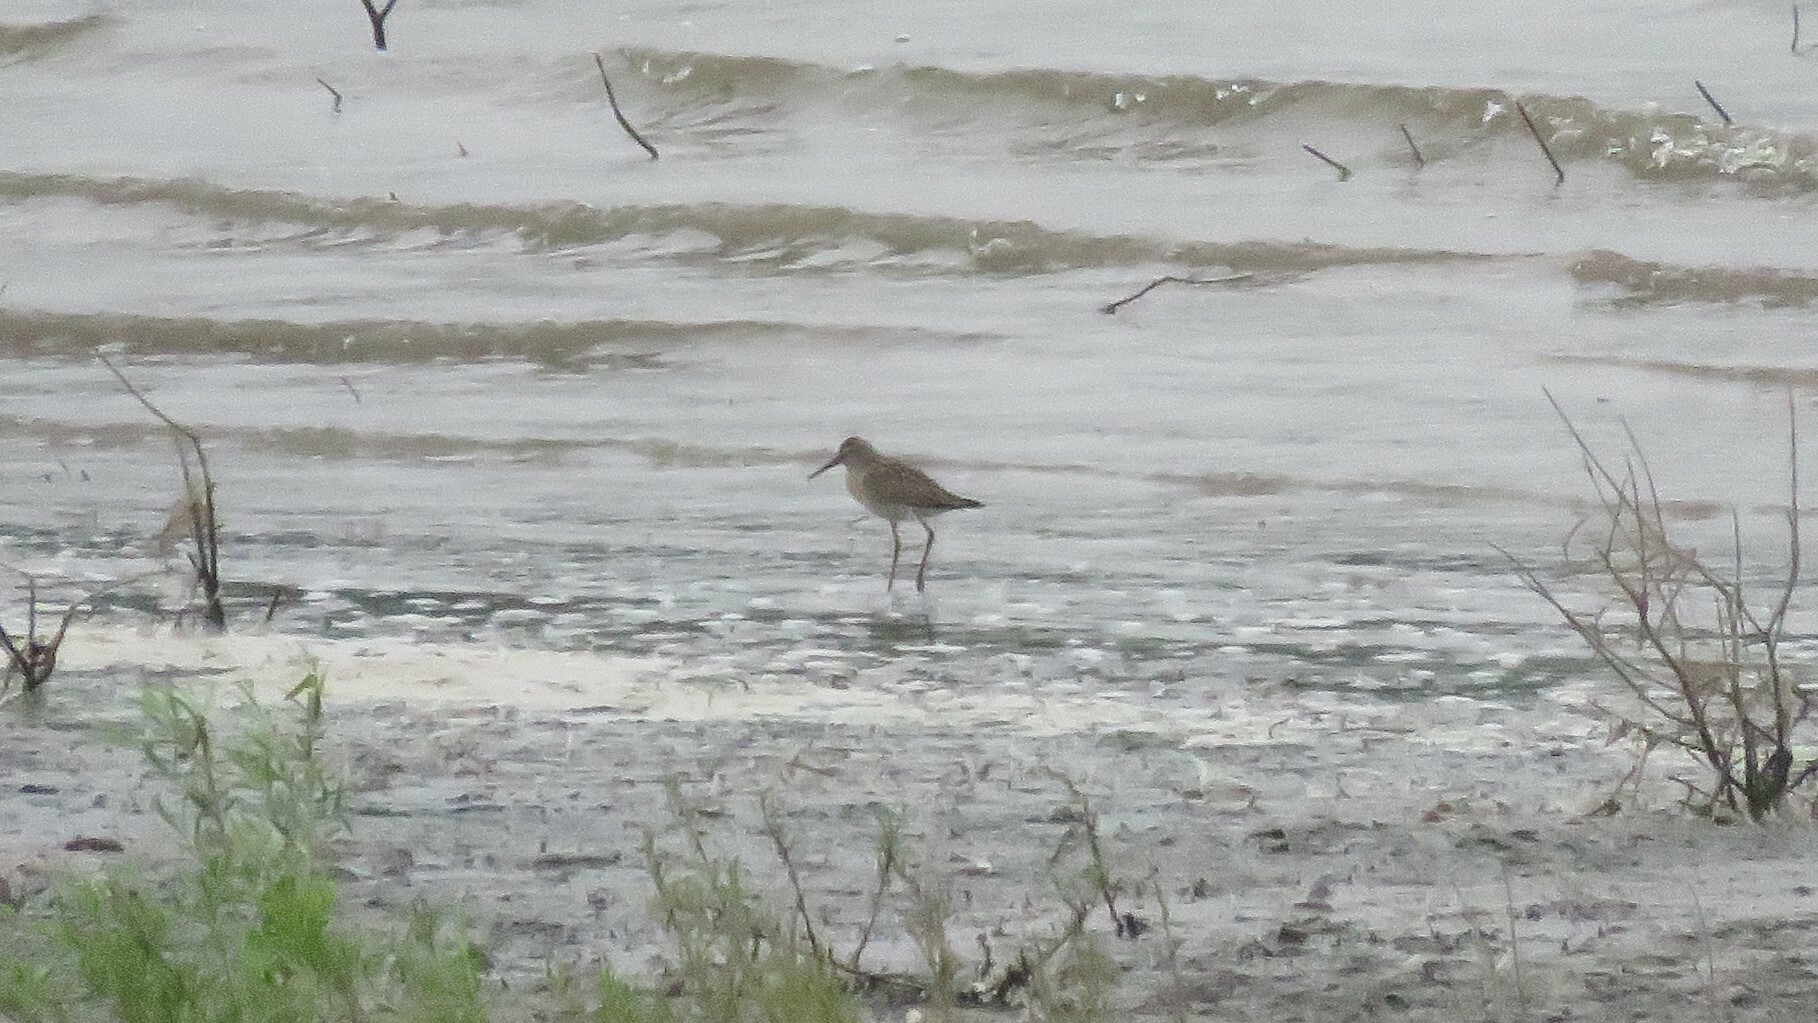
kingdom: Animalia
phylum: Chordata
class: Aves
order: Charadriiformes
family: Scolopacidae
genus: Calidris
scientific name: Calidris himantopus
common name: Stilt sandpiper
